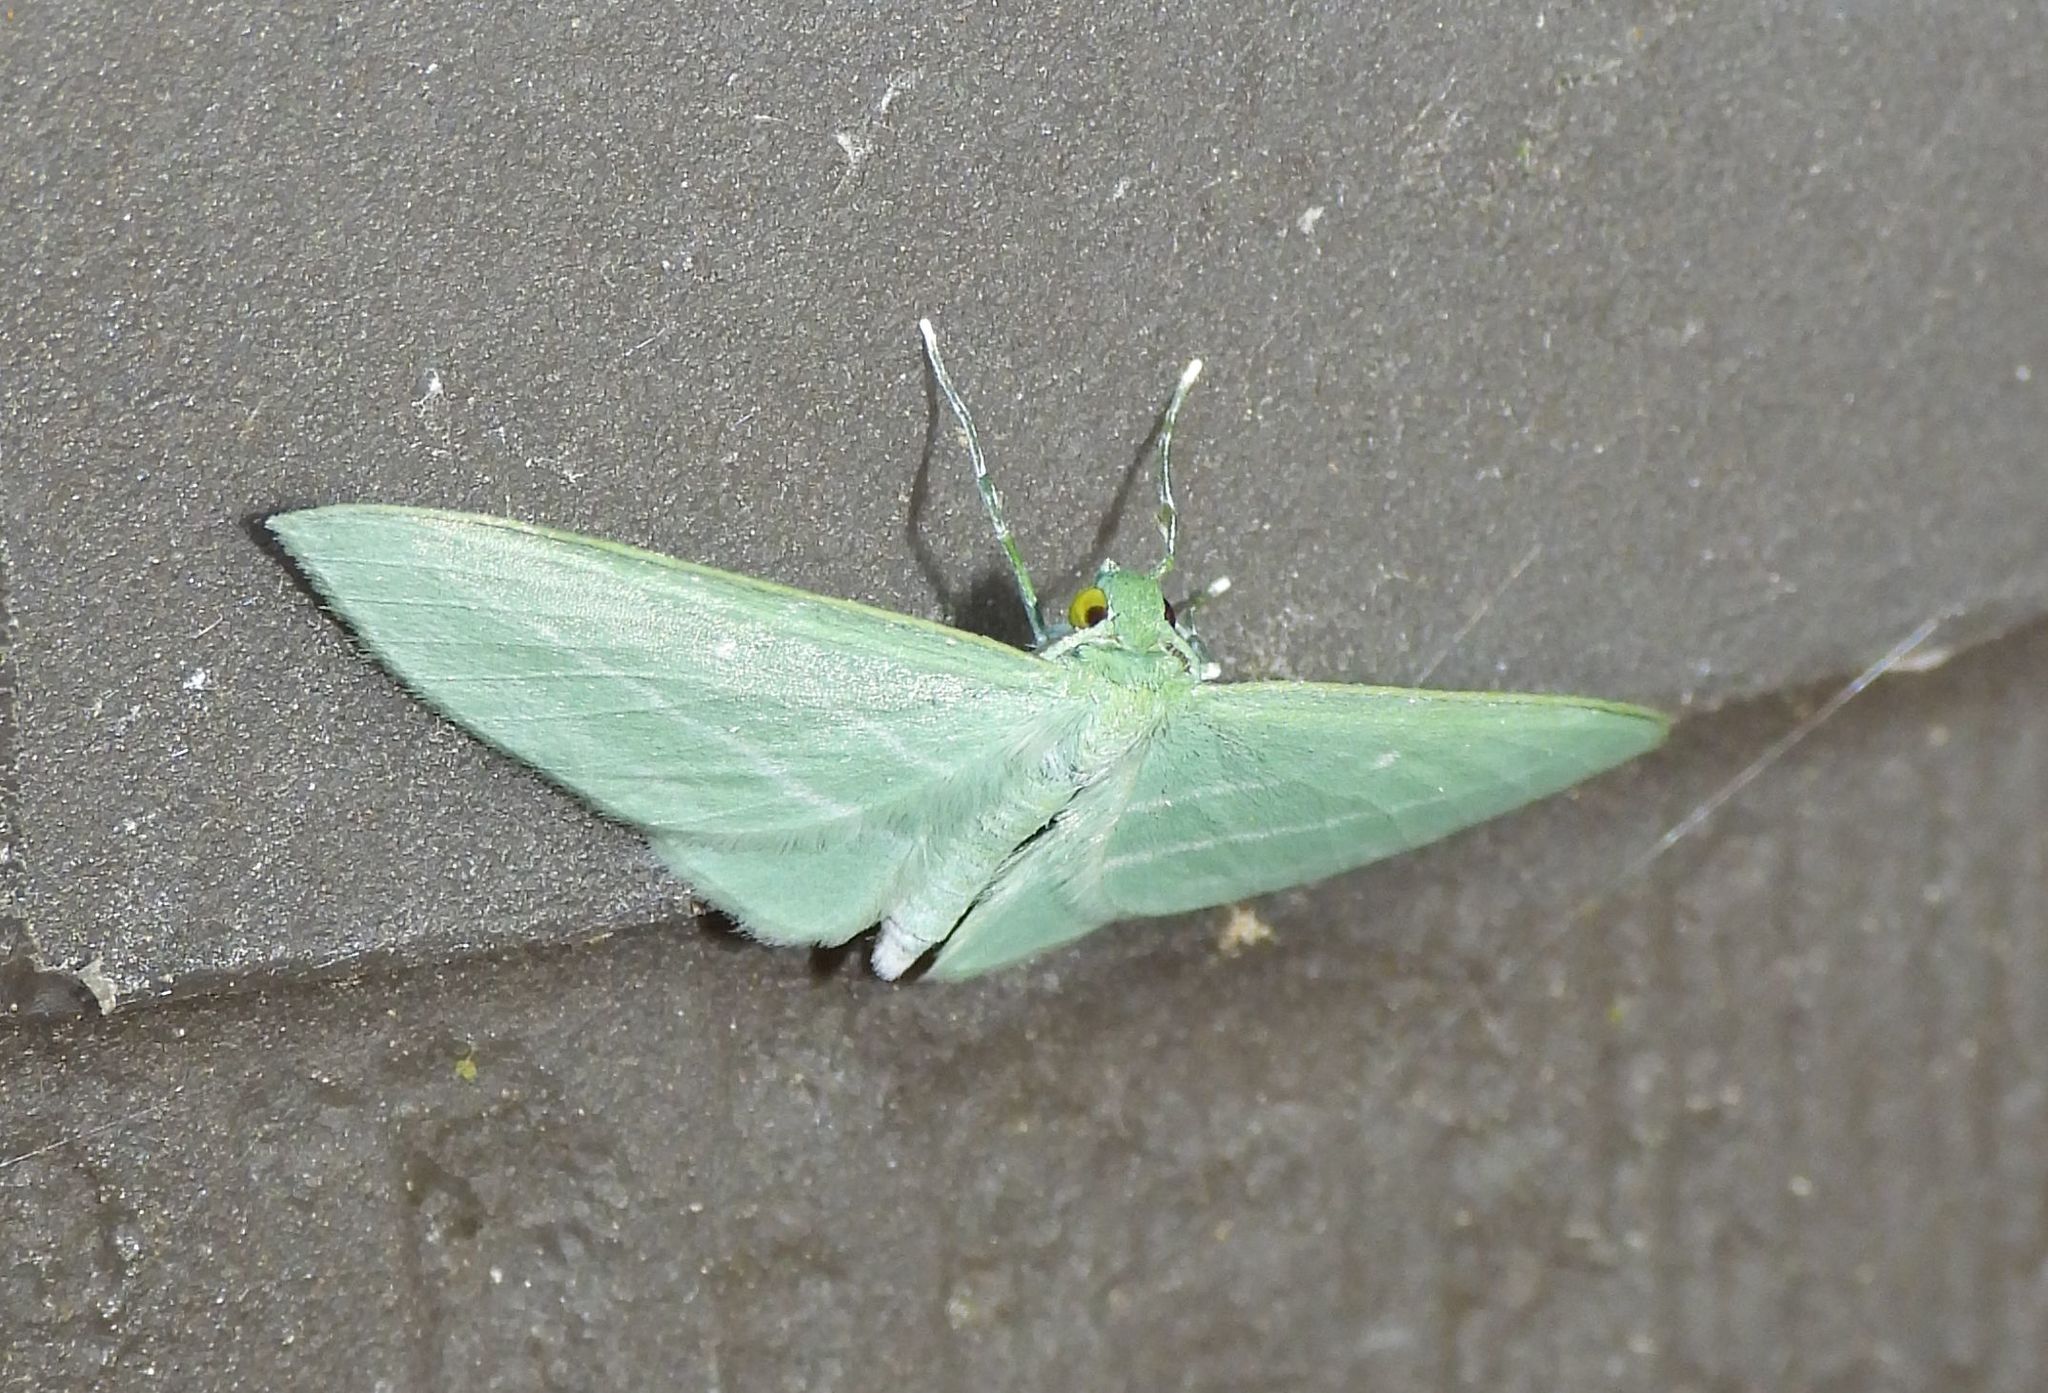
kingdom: Animalia
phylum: Arthropoda
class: Insecta
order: Lepidoptera
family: Geometridae
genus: Dyspteris
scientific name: Dyspteris abortivaria
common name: Bad-wing
